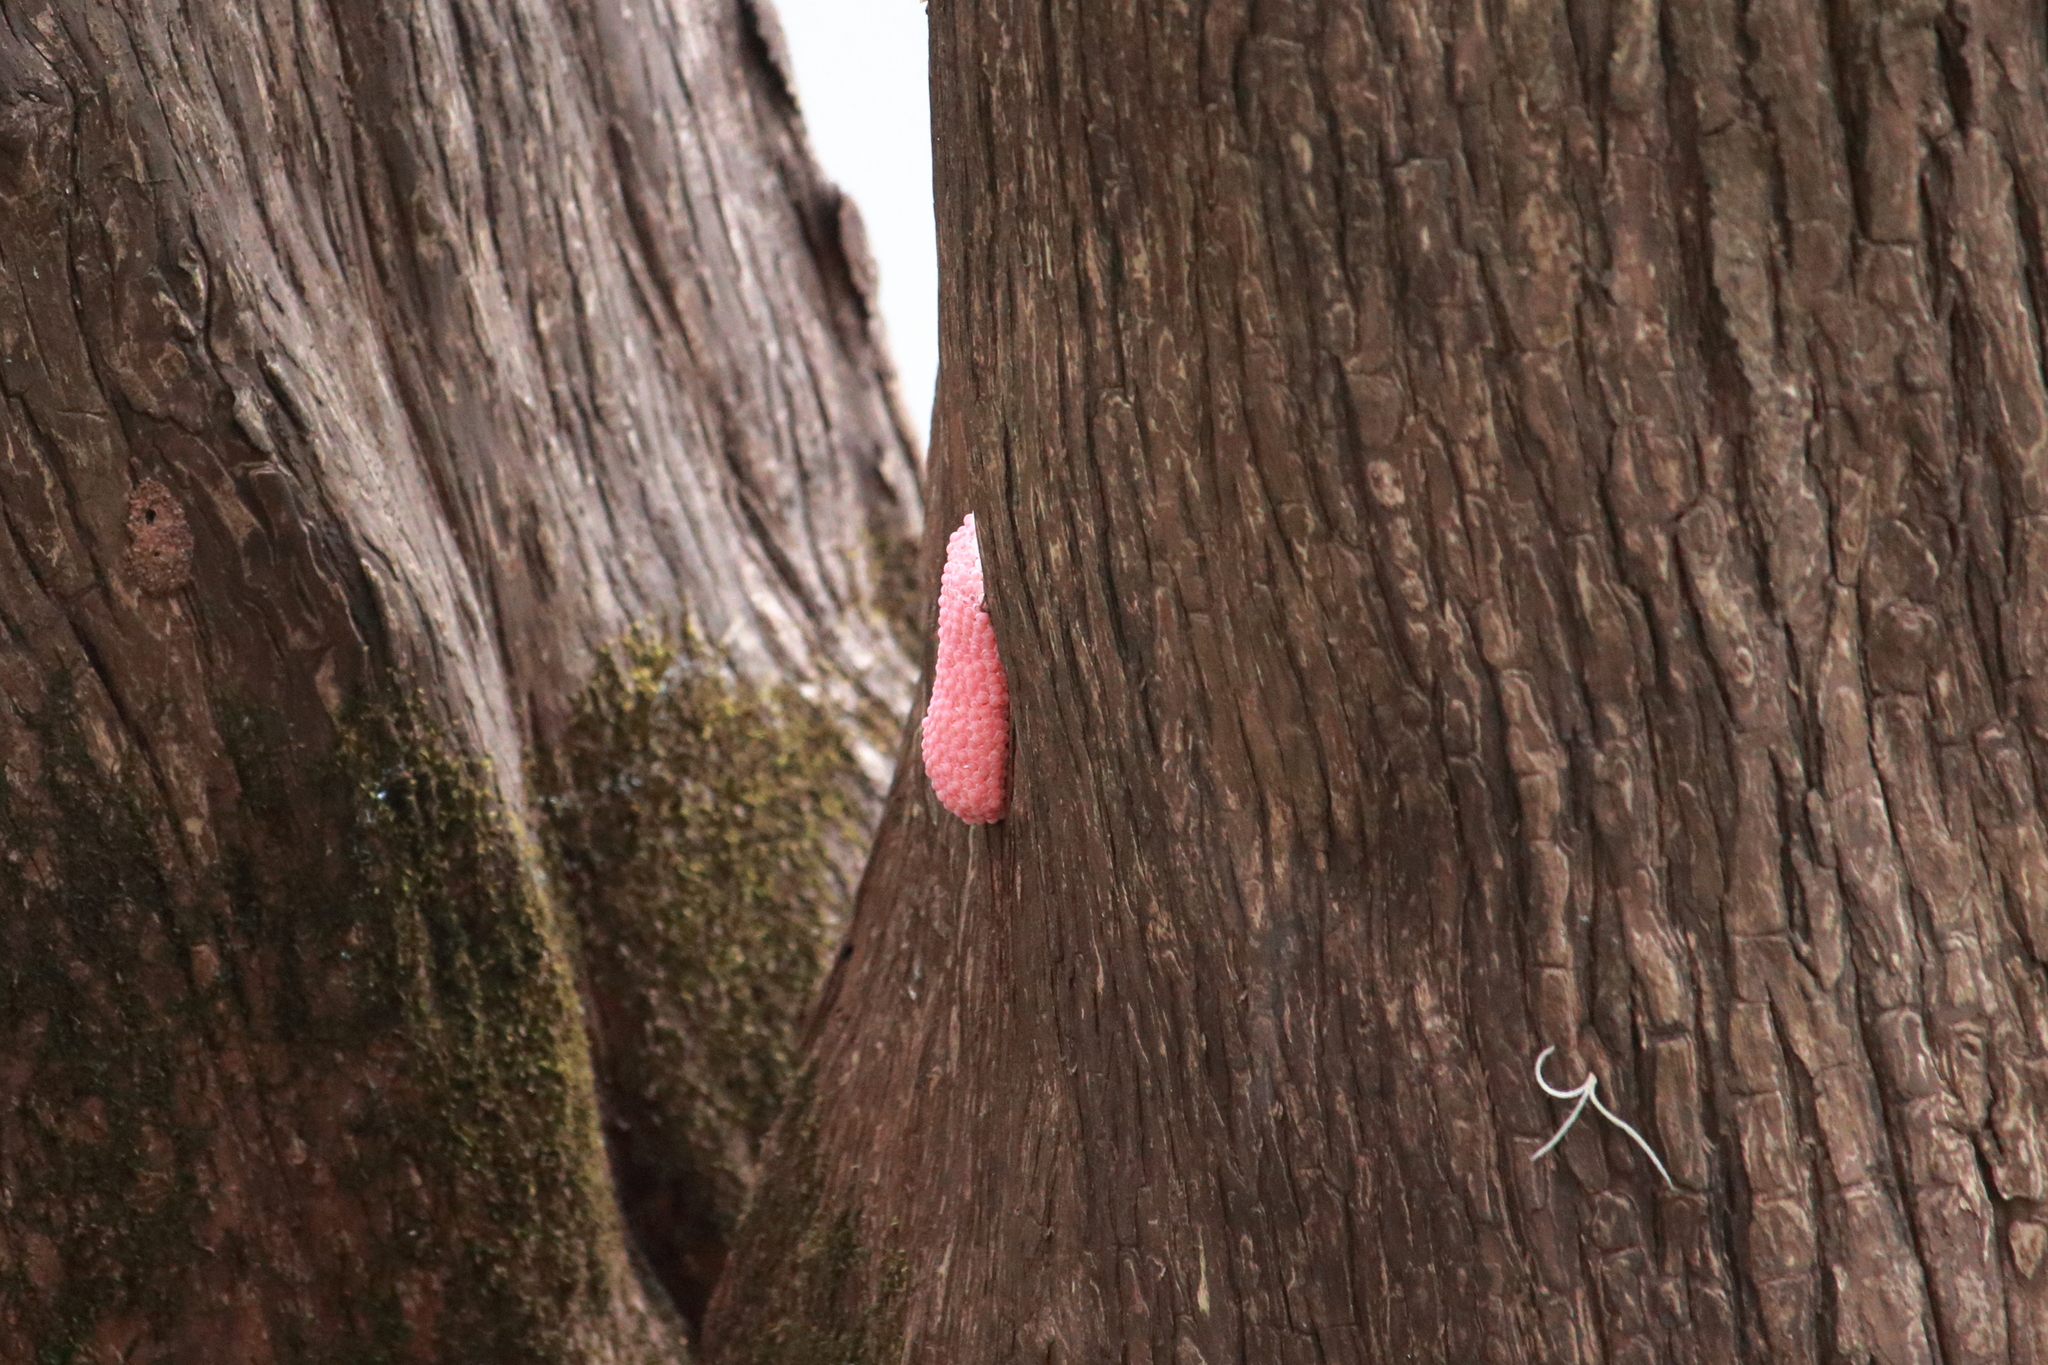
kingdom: Animalia
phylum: Mollusca
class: Gastropoda
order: Architaenioglossa
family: Ampullariidae
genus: Pomacea
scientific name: Pomacea maculata
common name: Giant applesnail
